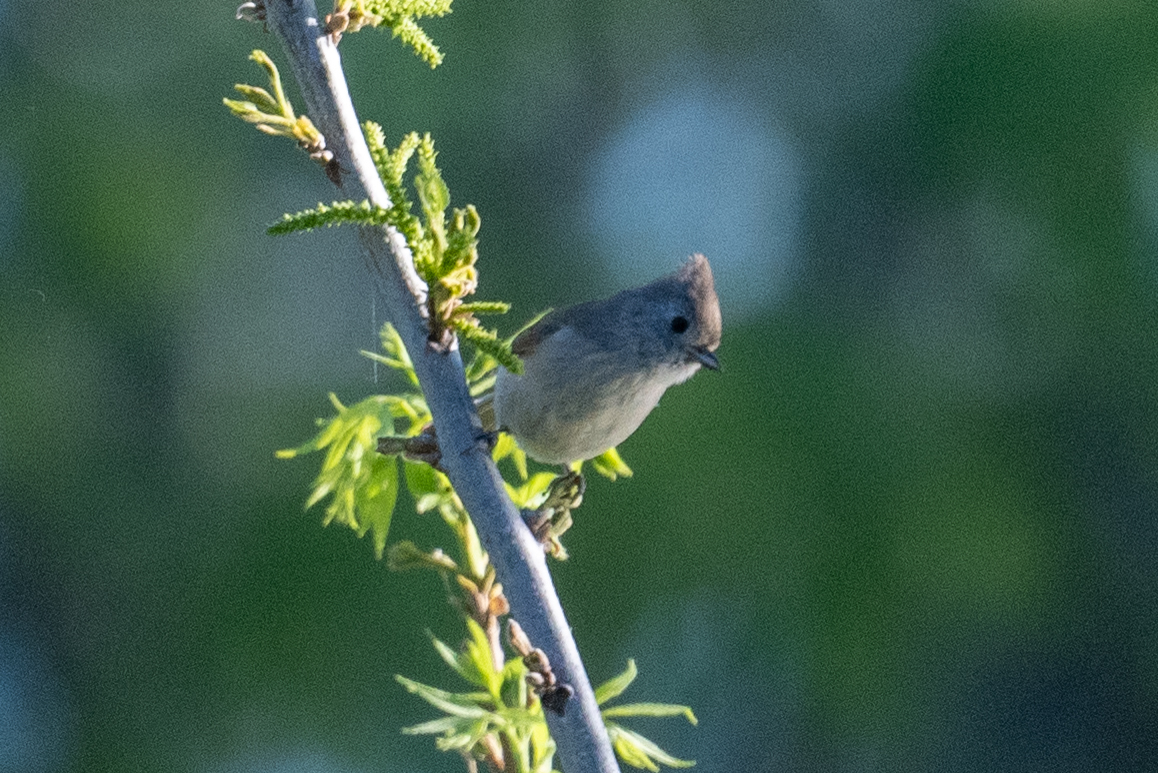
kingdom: Animalia
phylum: Chordata
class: Aves
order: Passeriformes
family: Paridae
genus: Baeolophus
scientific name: Baeolophus inornatus
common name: Oak titmouse
